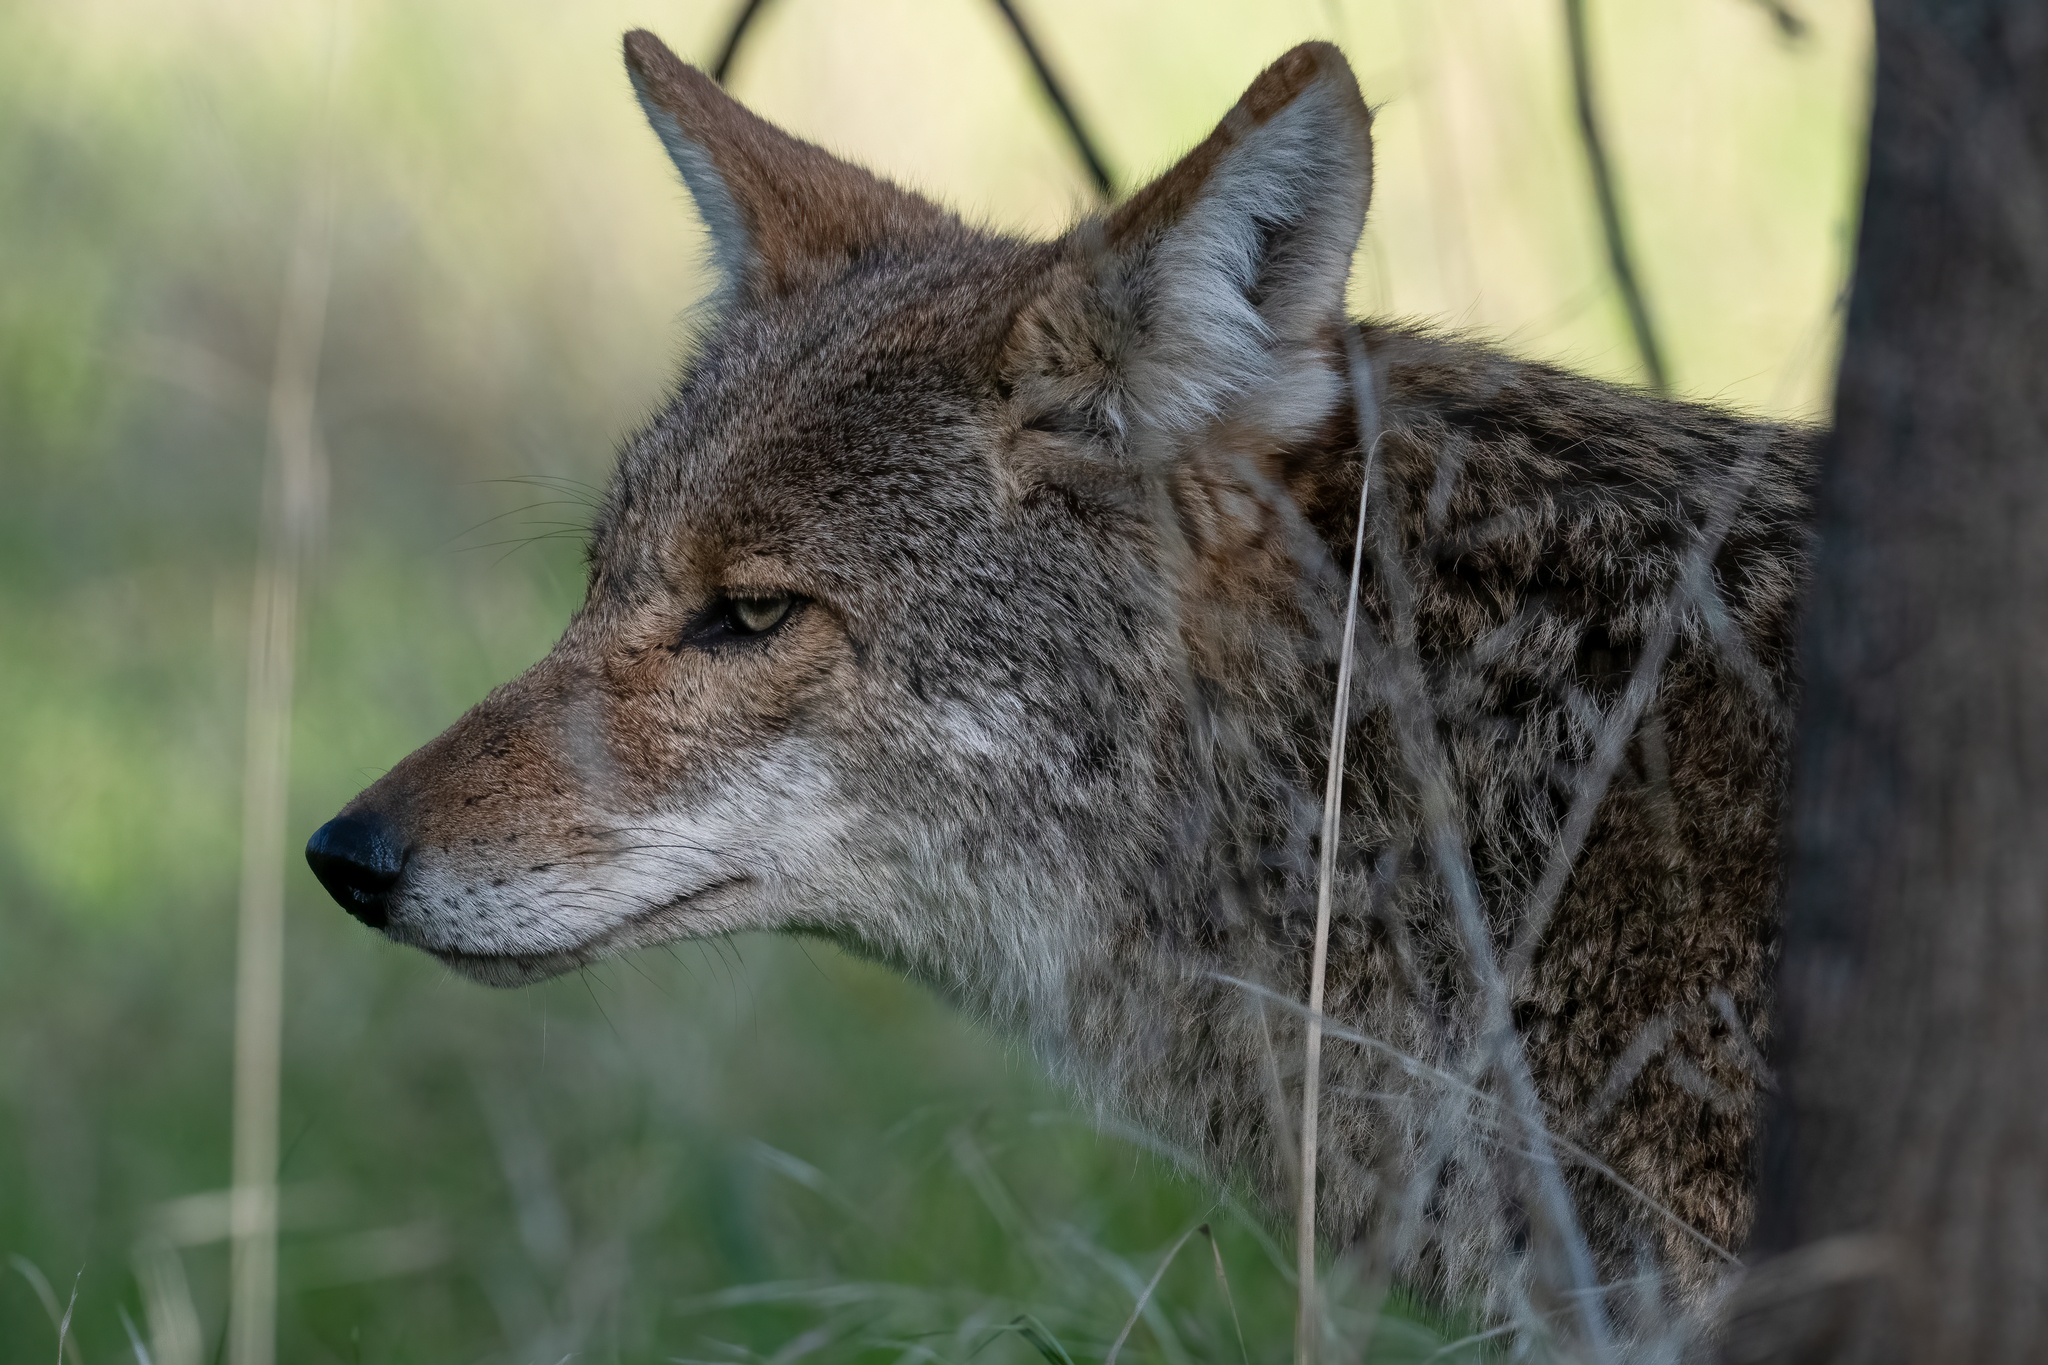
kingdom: Animalia
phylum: Chordata
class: Mammalia
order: Carnivora
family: Canidae
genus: Canis
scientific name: Canis latrans
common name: Coyote
